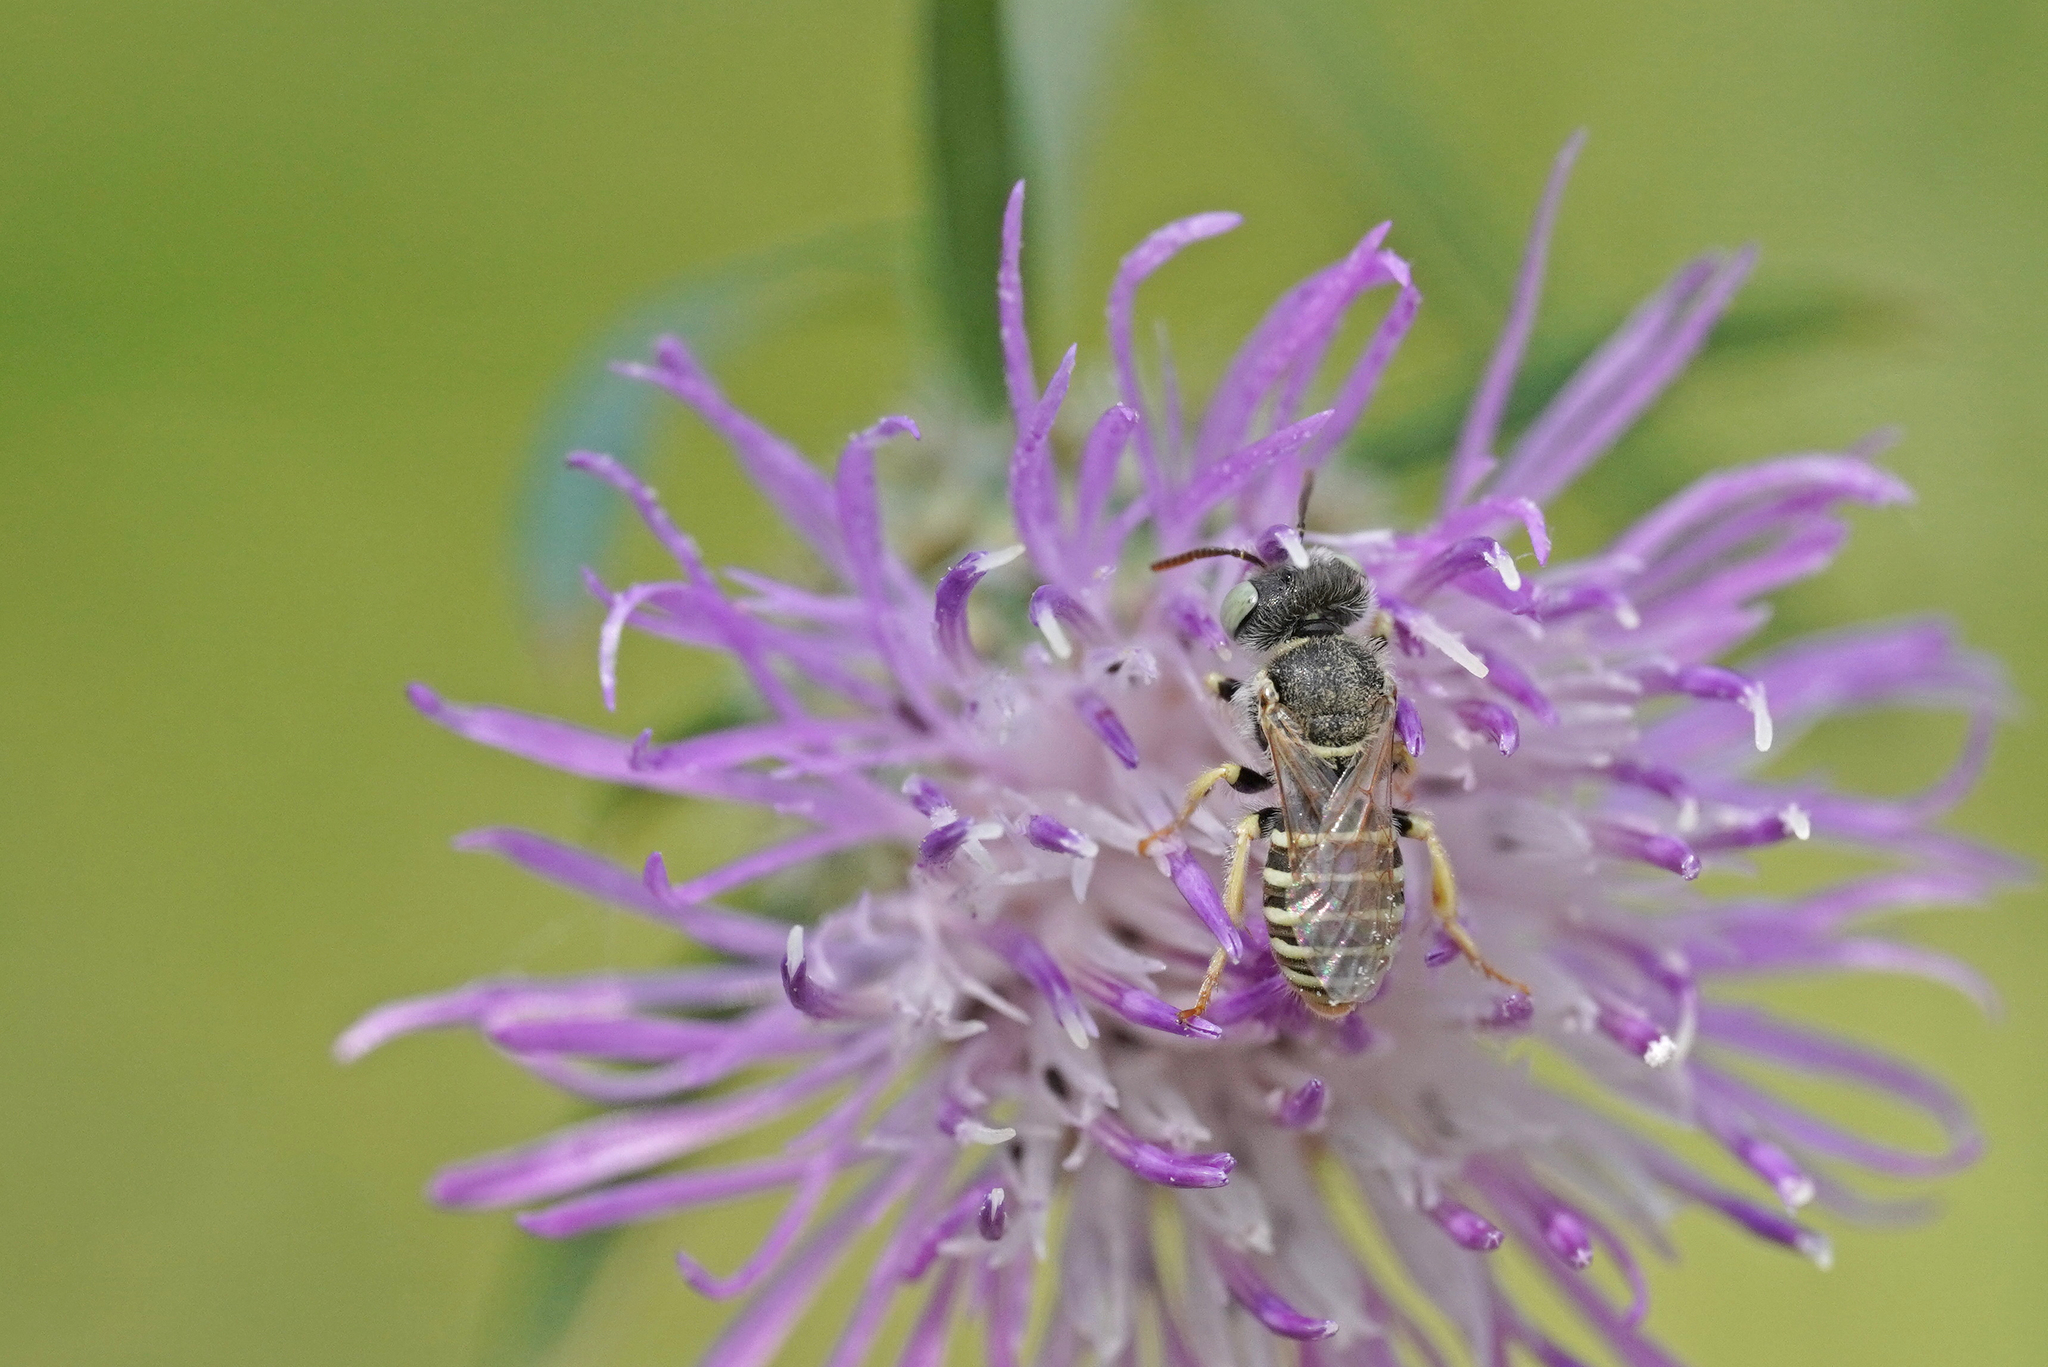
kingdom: Animalia
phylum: Arthropoda
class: Insecta
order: Hymenoptera
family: Andrenidae
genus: Camptopoeum
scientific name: Camptopoeum frontale
